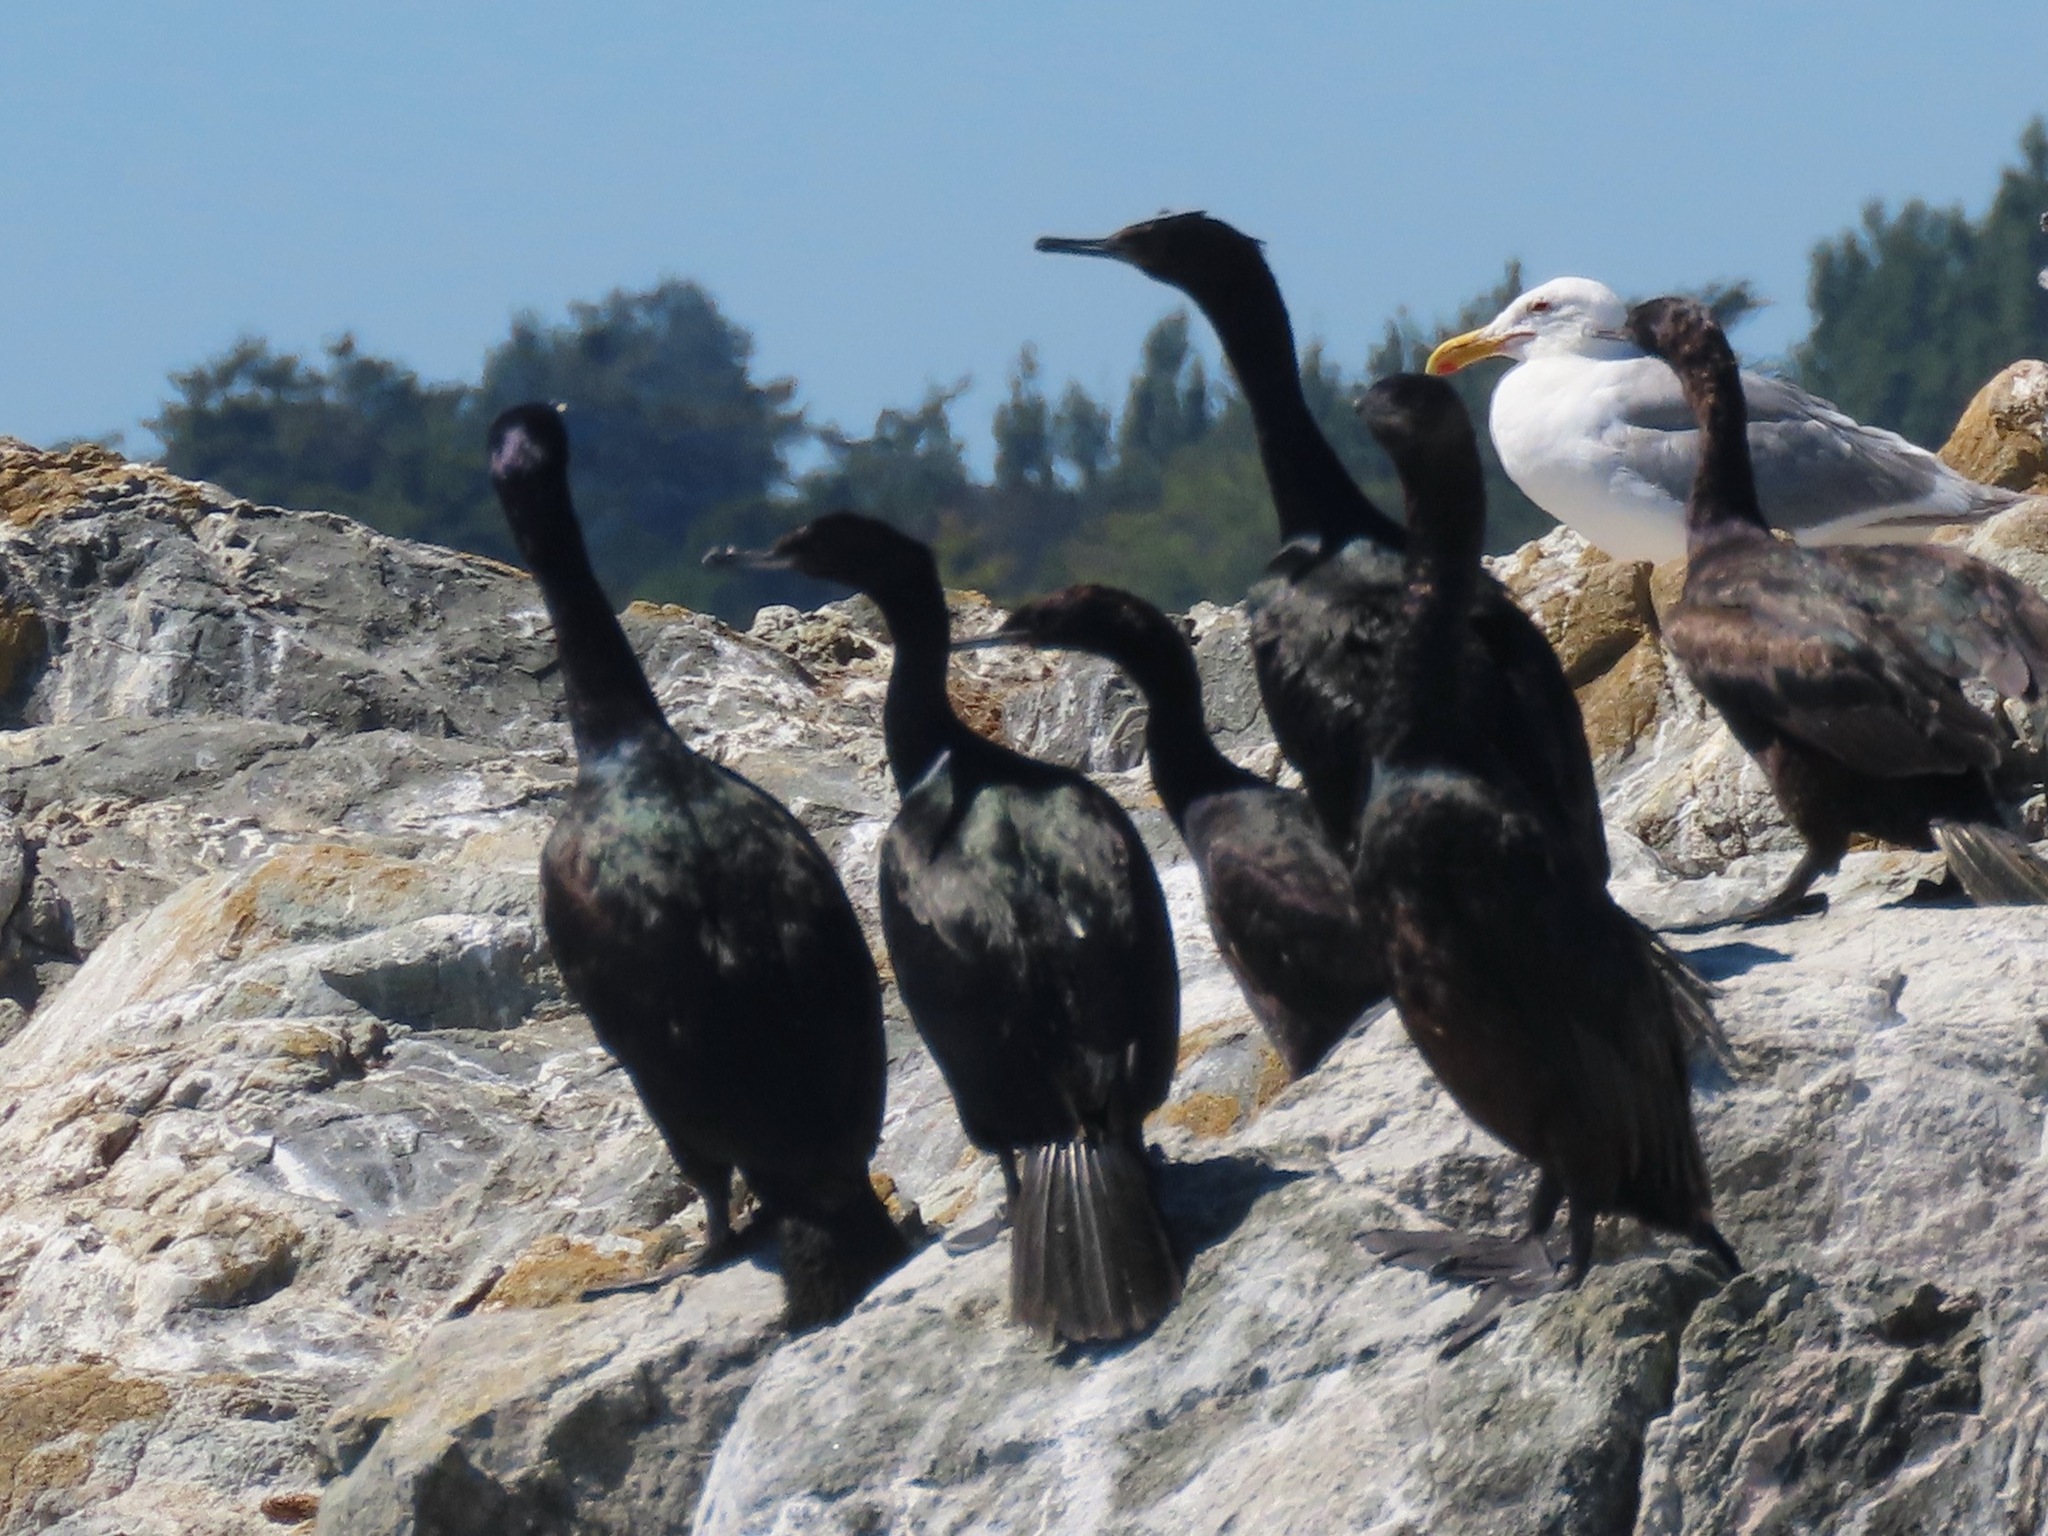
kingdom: Animalia
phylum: Chordata
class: Aves
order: Suliformes
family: Phalacrocoracidae
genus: Phalacrocorax
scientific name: Phalacrocorax pelagicus
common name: Pelagic cormorant
